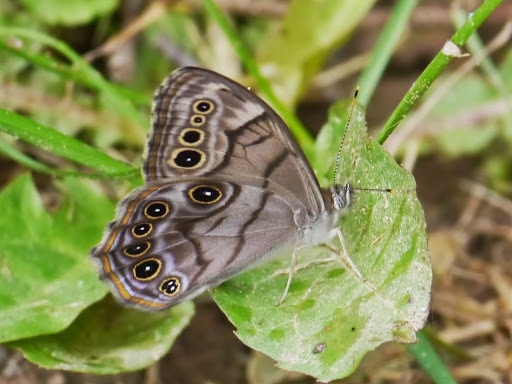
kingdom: Animalia
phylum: Arthropoda
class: Insecta
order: Lepidoptera
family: Nymphalidae
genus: Lethe
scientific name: Lethe anthedon
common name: Northern pearly-eye
